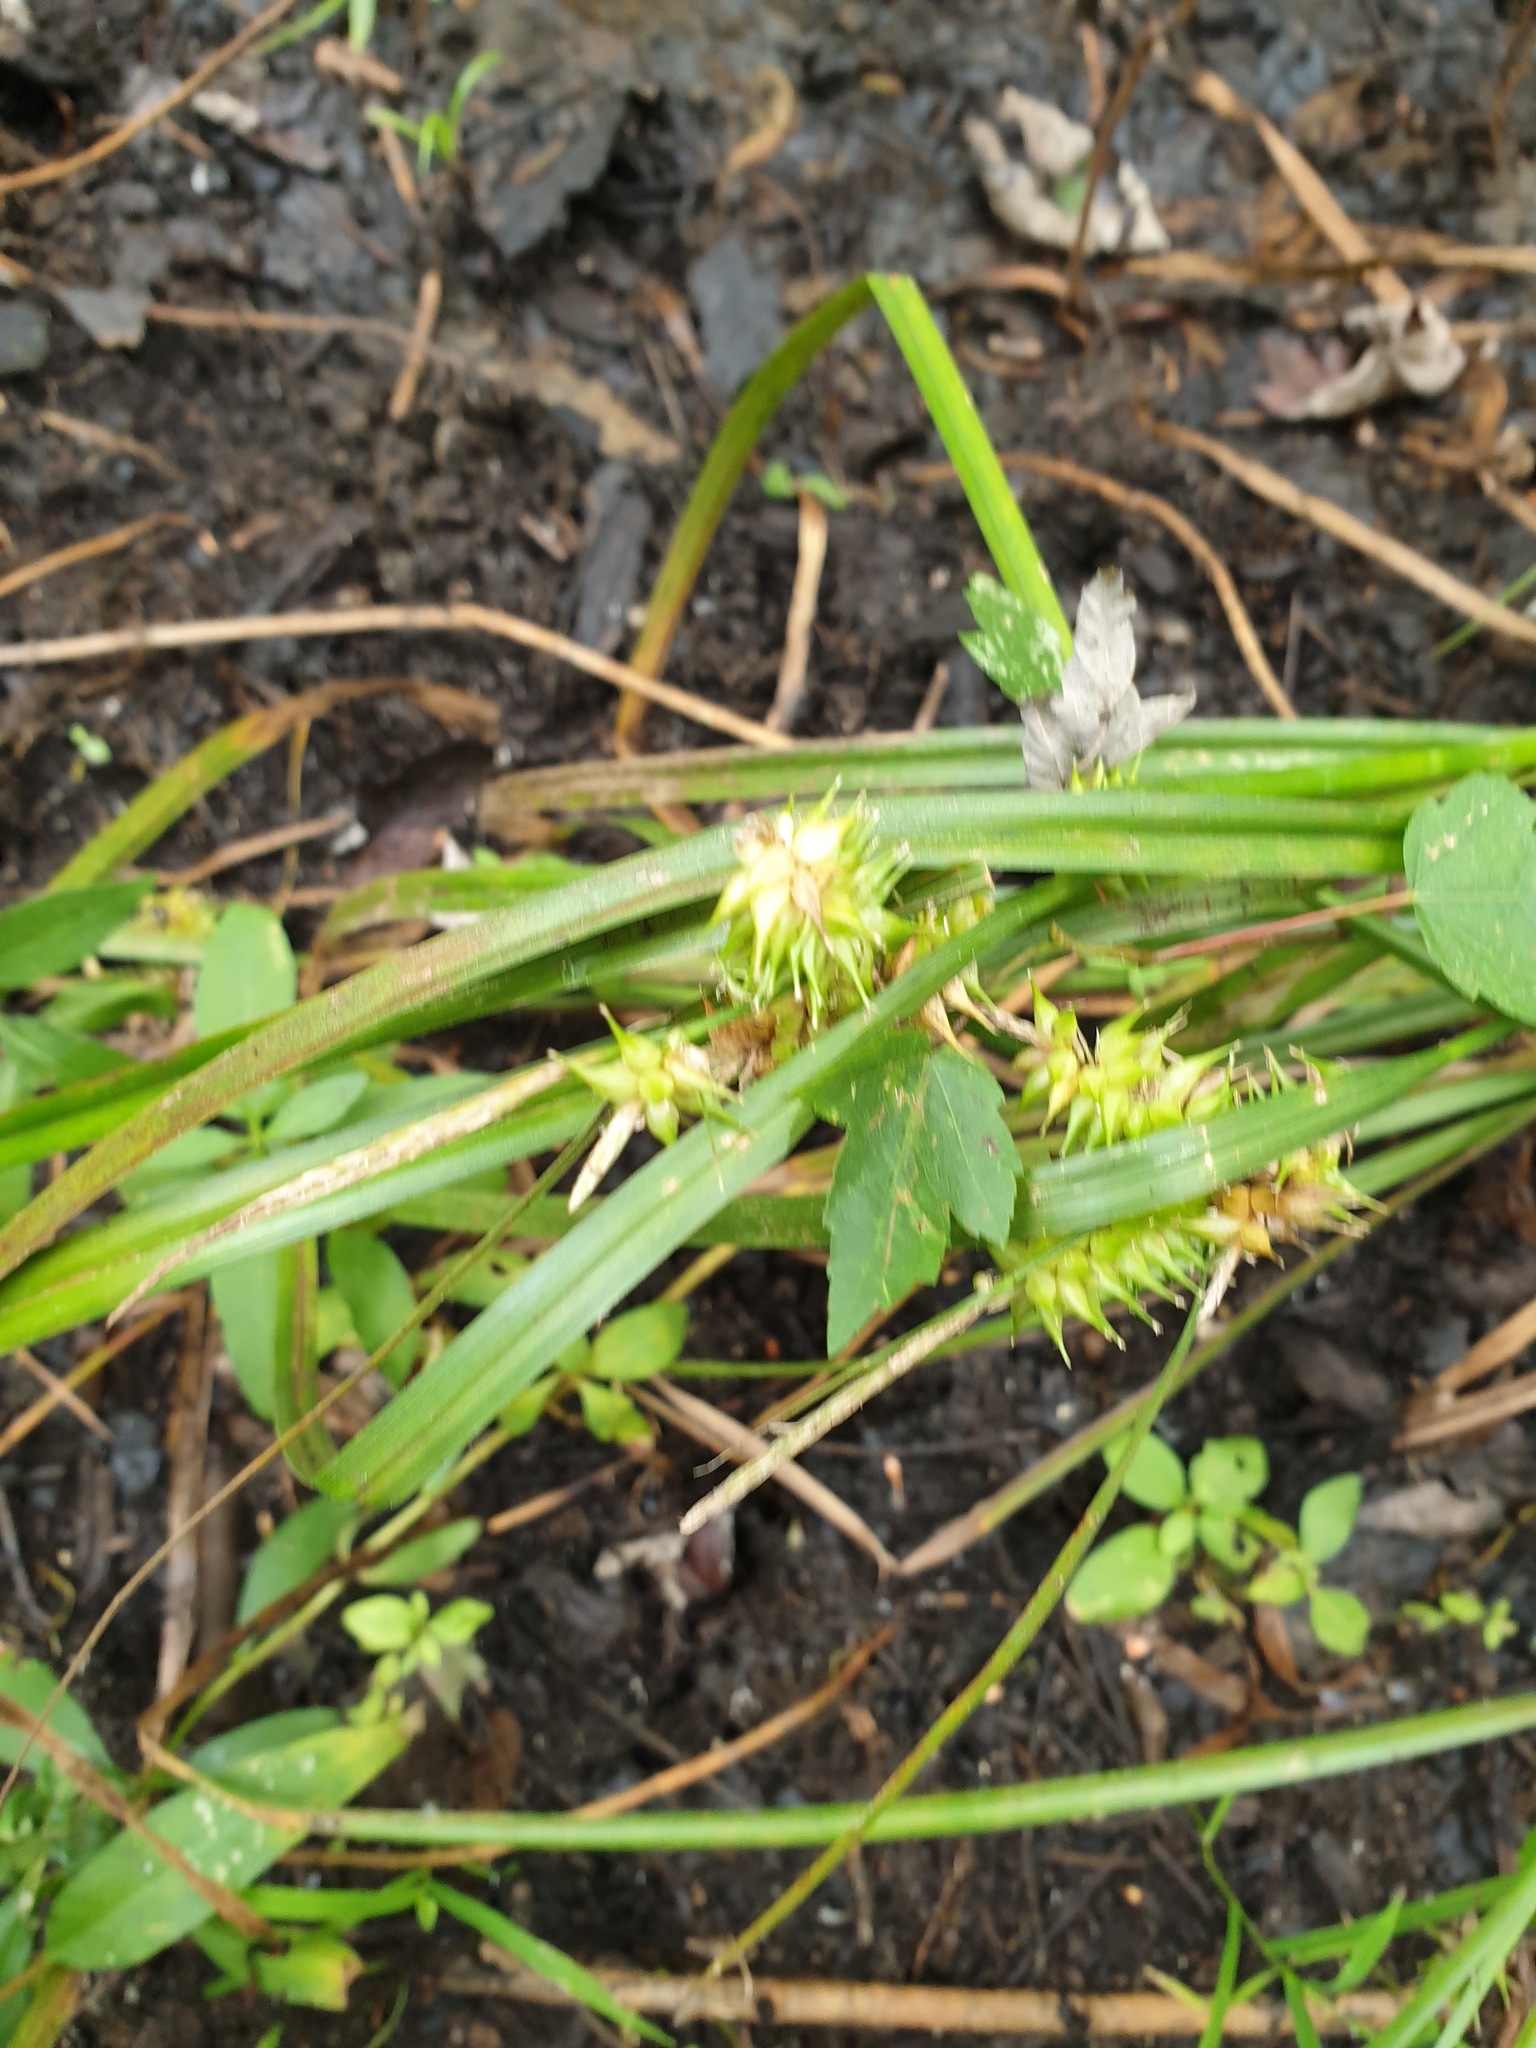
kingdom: Plantae
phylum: Tracheophyta
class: Liliopsida
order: Poales
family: Cyperaceae
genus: Carex
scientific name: Carex retrorsa
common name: Knot-sheath sedge
